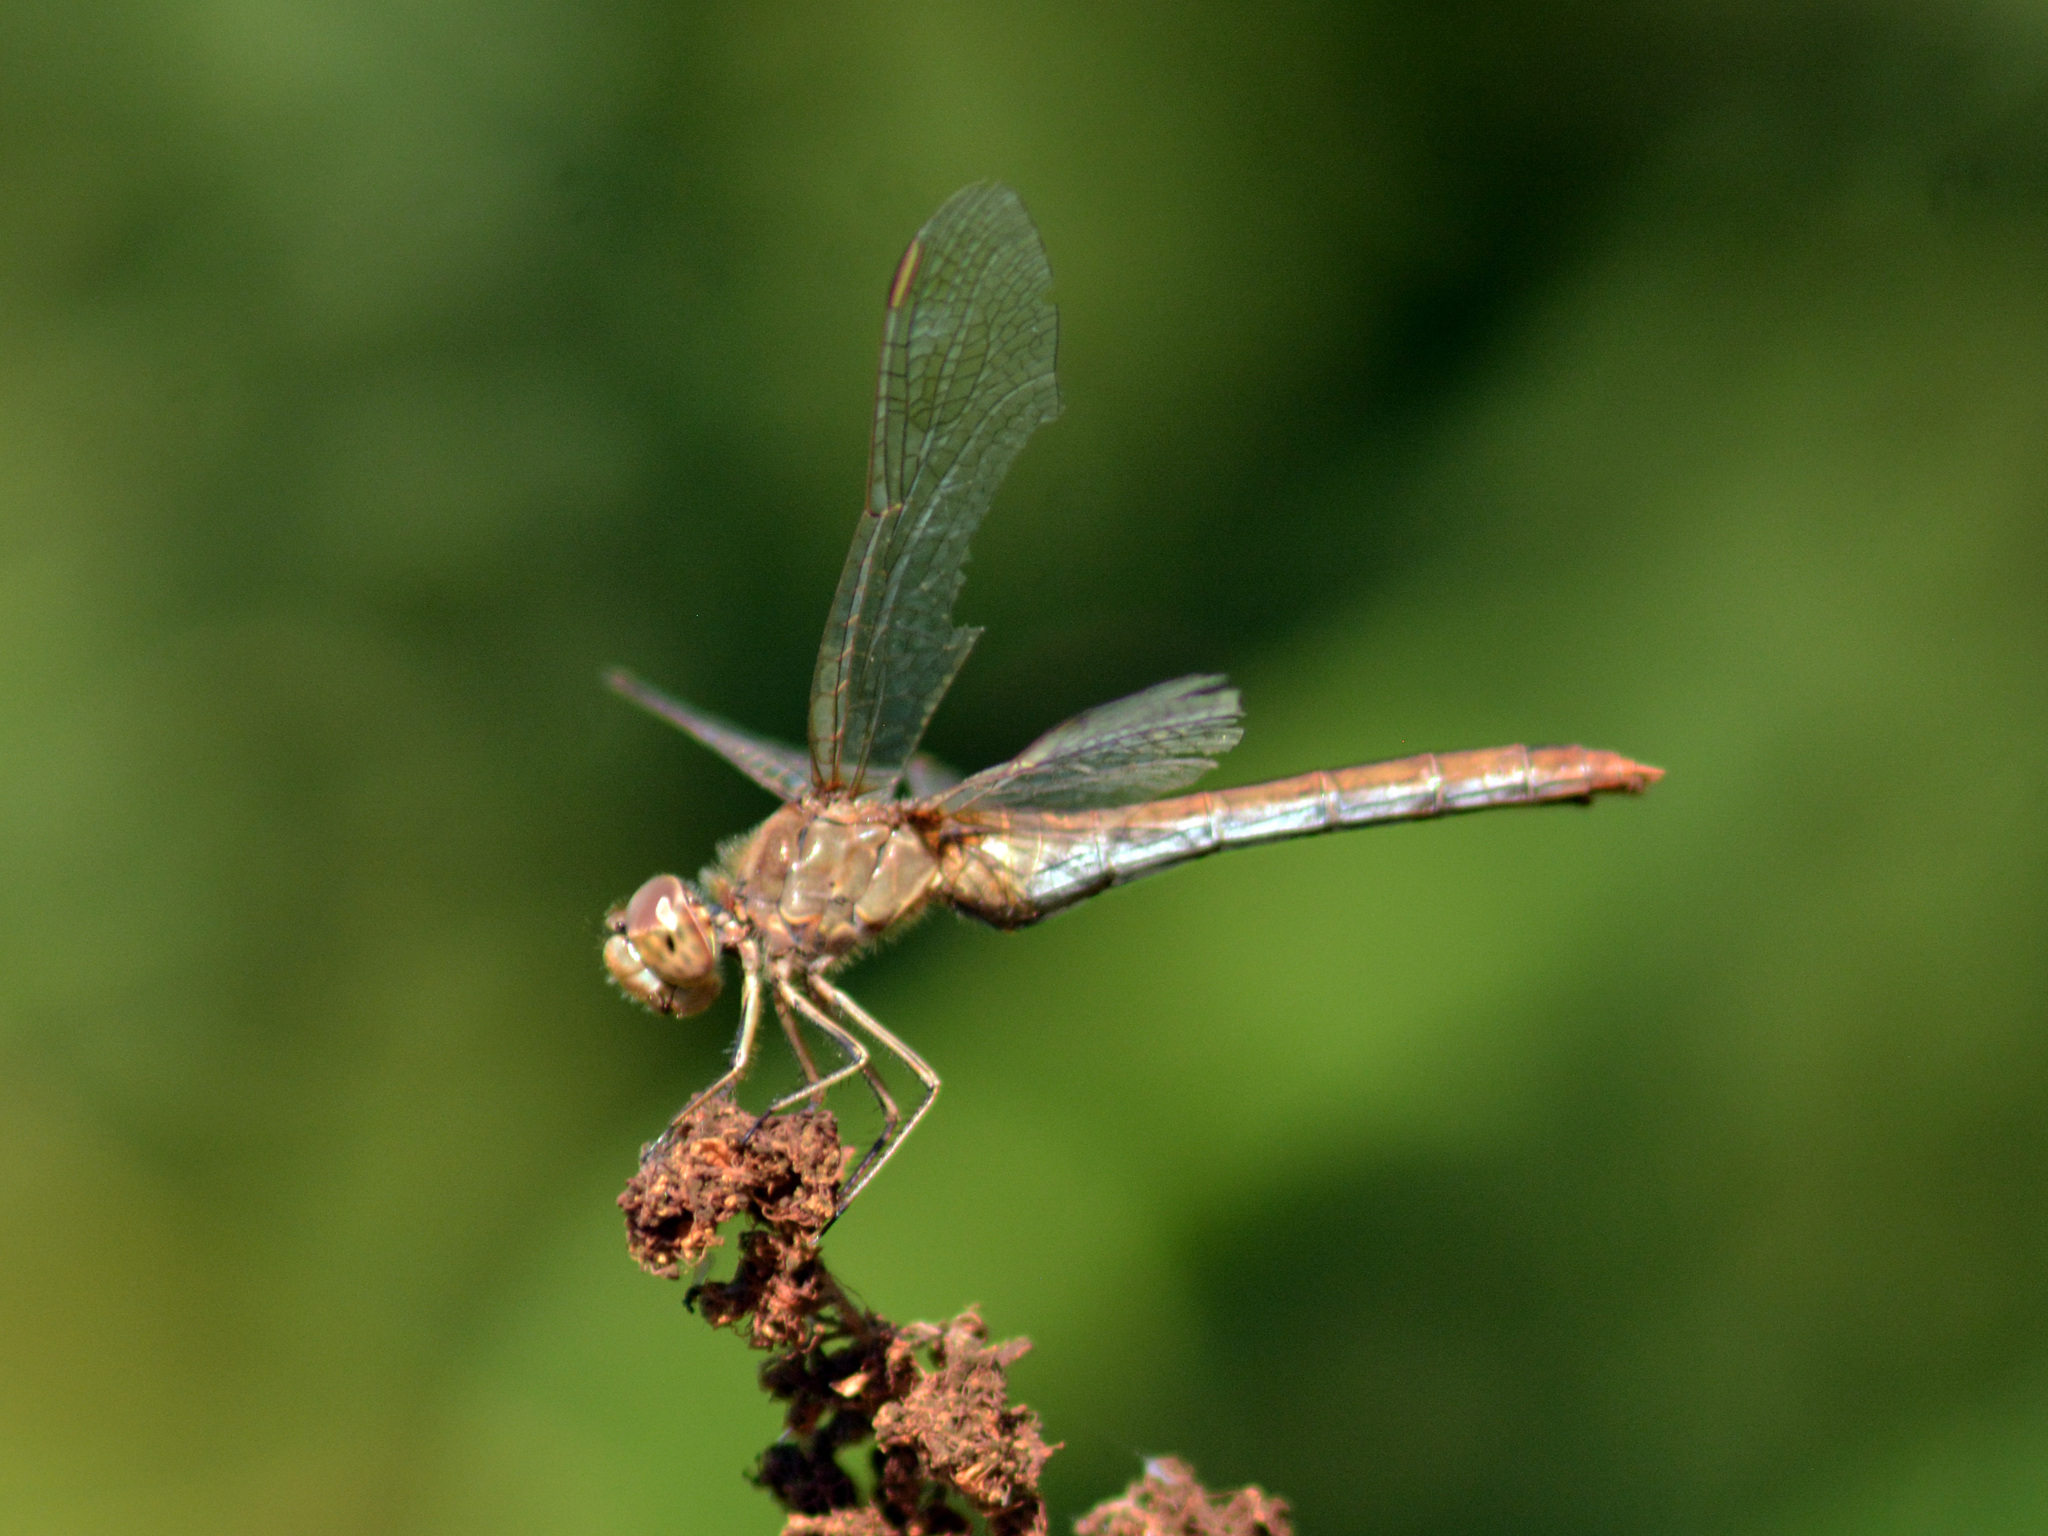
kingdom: Animalia
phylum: Arthropoda
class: Insecta
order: Odonata
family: Libellulidae
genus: Sympetrum
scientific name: Sympetrum meridionale
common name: Southern darter
